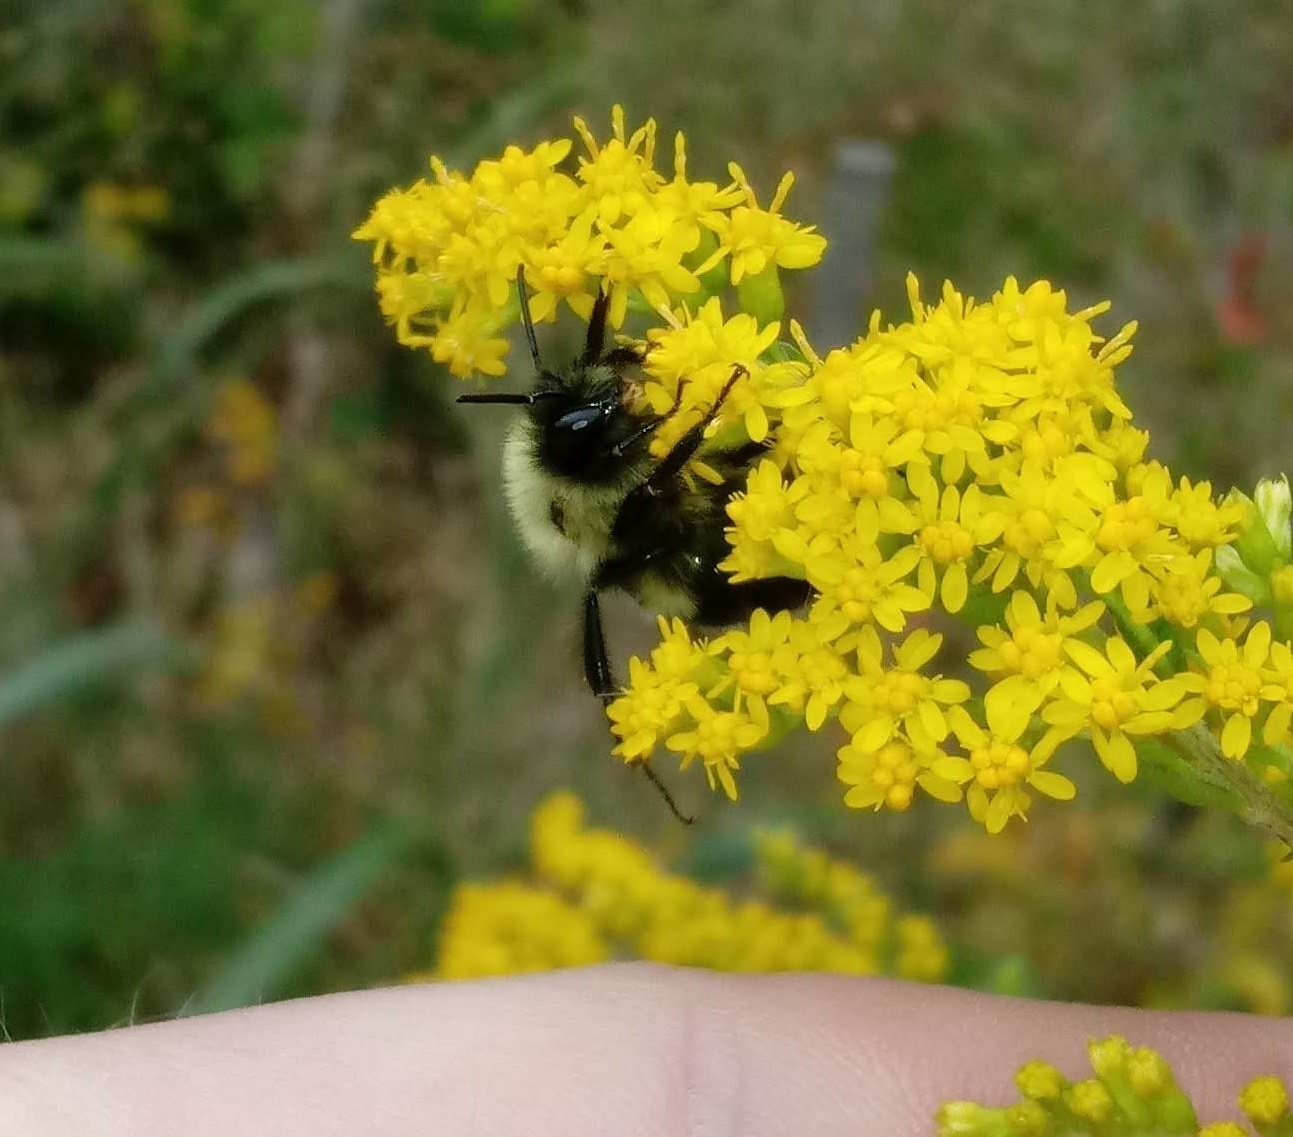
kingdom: Animalia
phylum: Arthropoda
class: Insecta
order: Hymenoptera
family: Apidae
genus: Bombus
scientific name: Bombus impatiens
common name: Common eastern bumble bee
